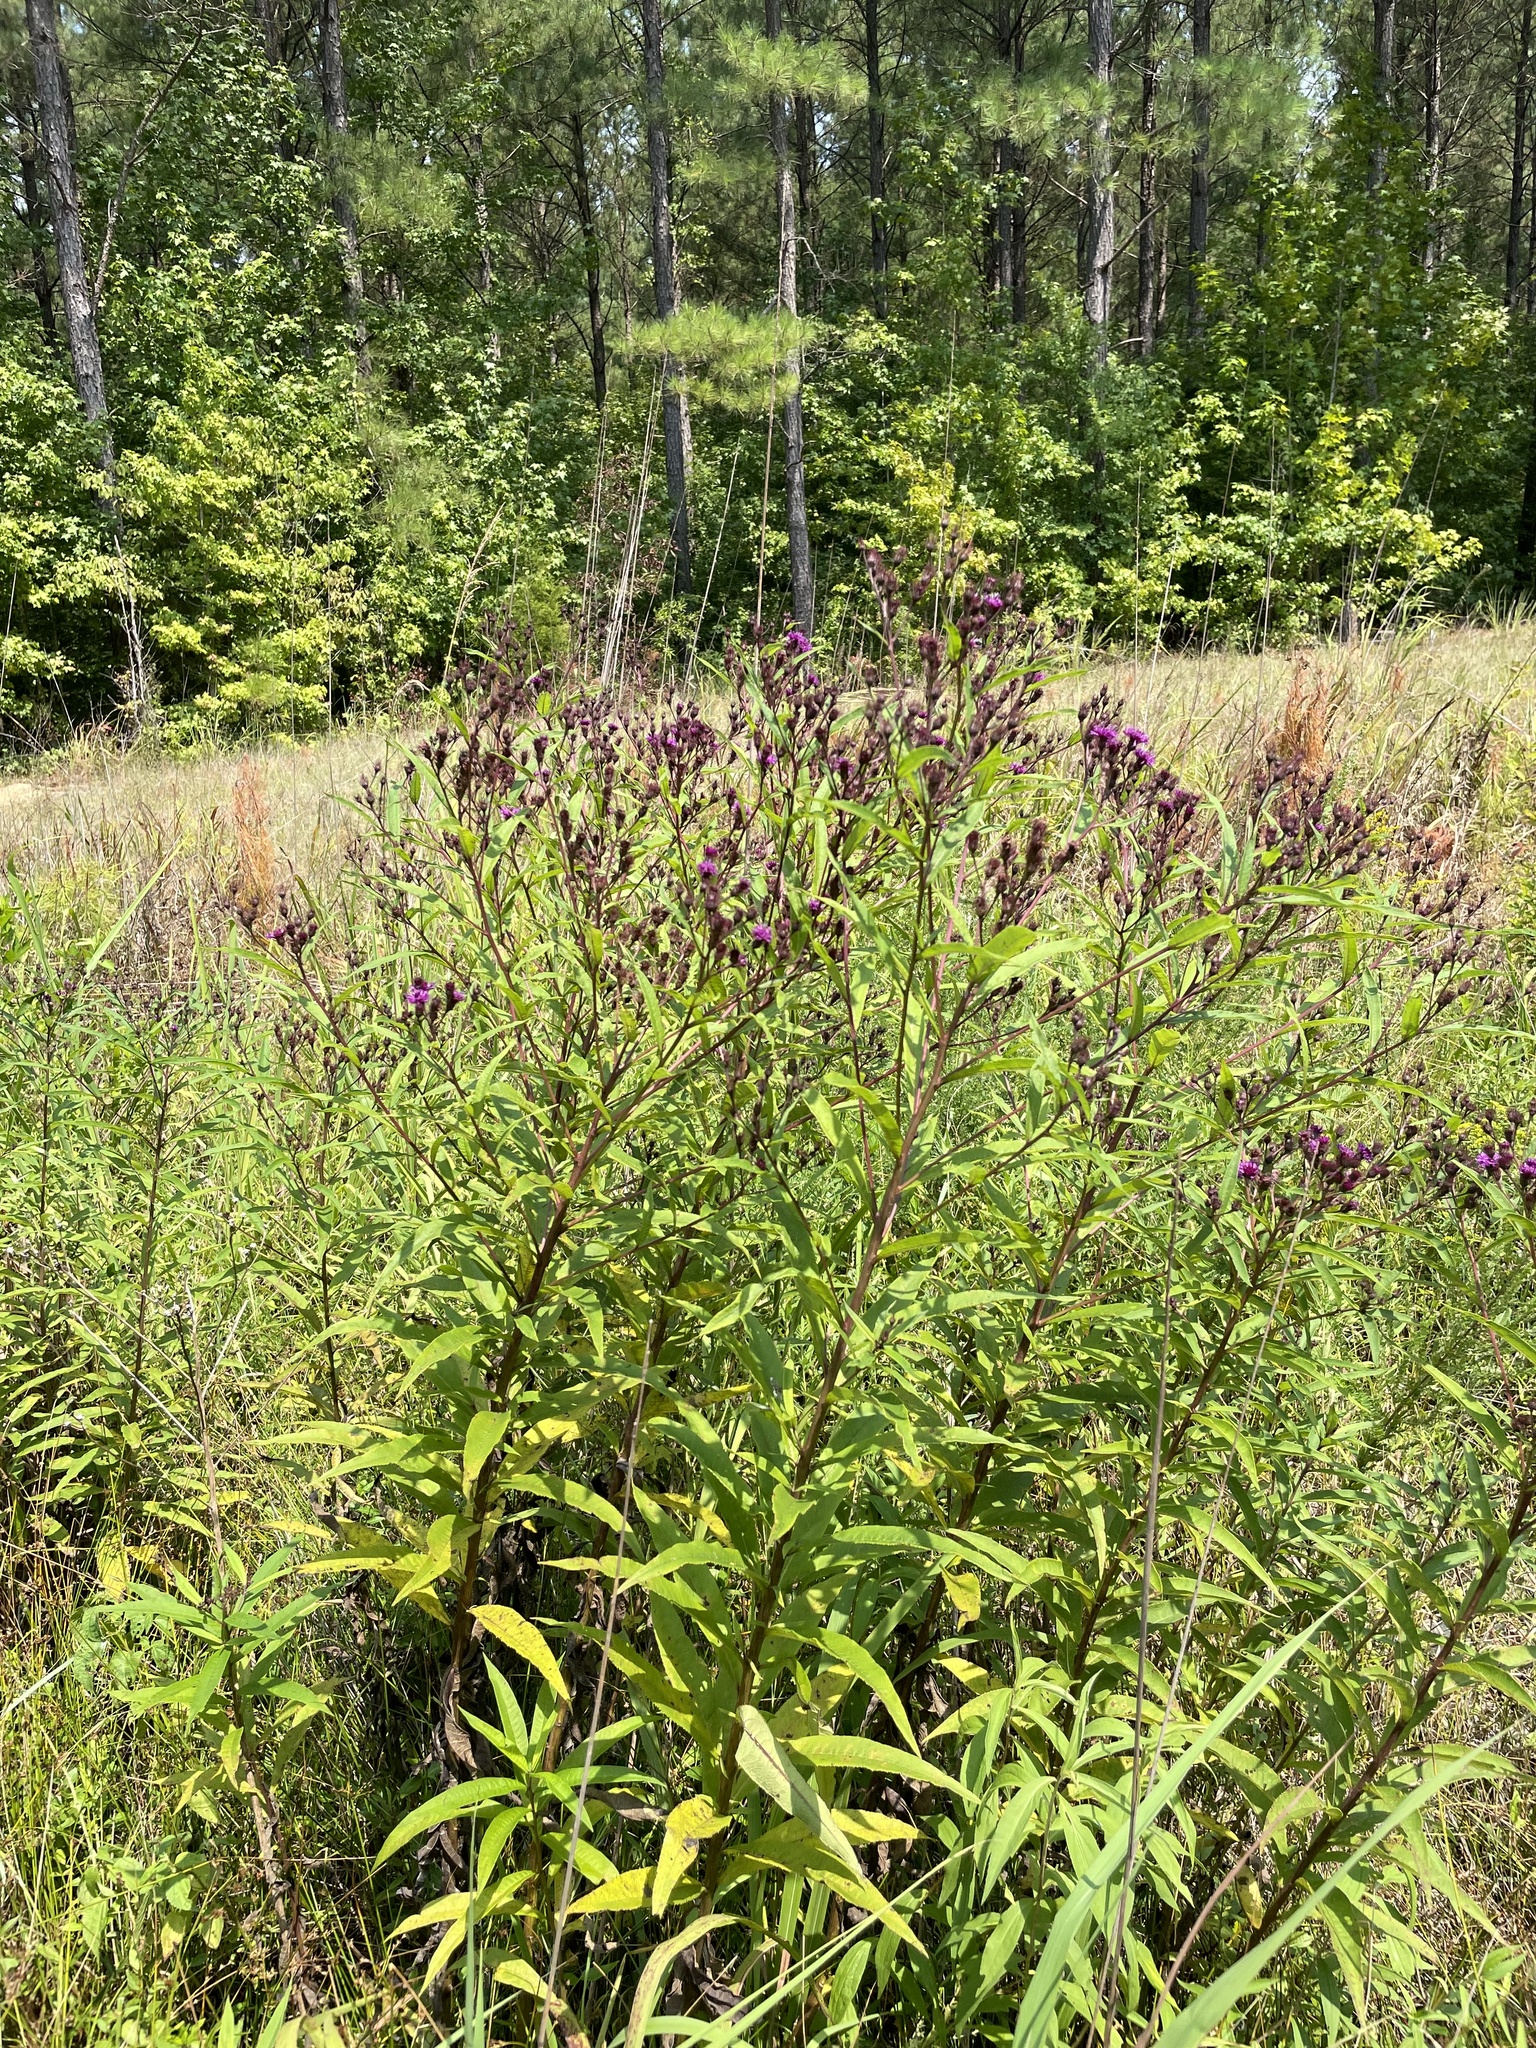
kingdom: Plantae
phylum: Tracheophyta
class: Magnoliopsida
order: Asterales
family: Asteraceae
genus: Vernonia
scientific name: Vernonia noveboracensis
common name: New york ironweed
